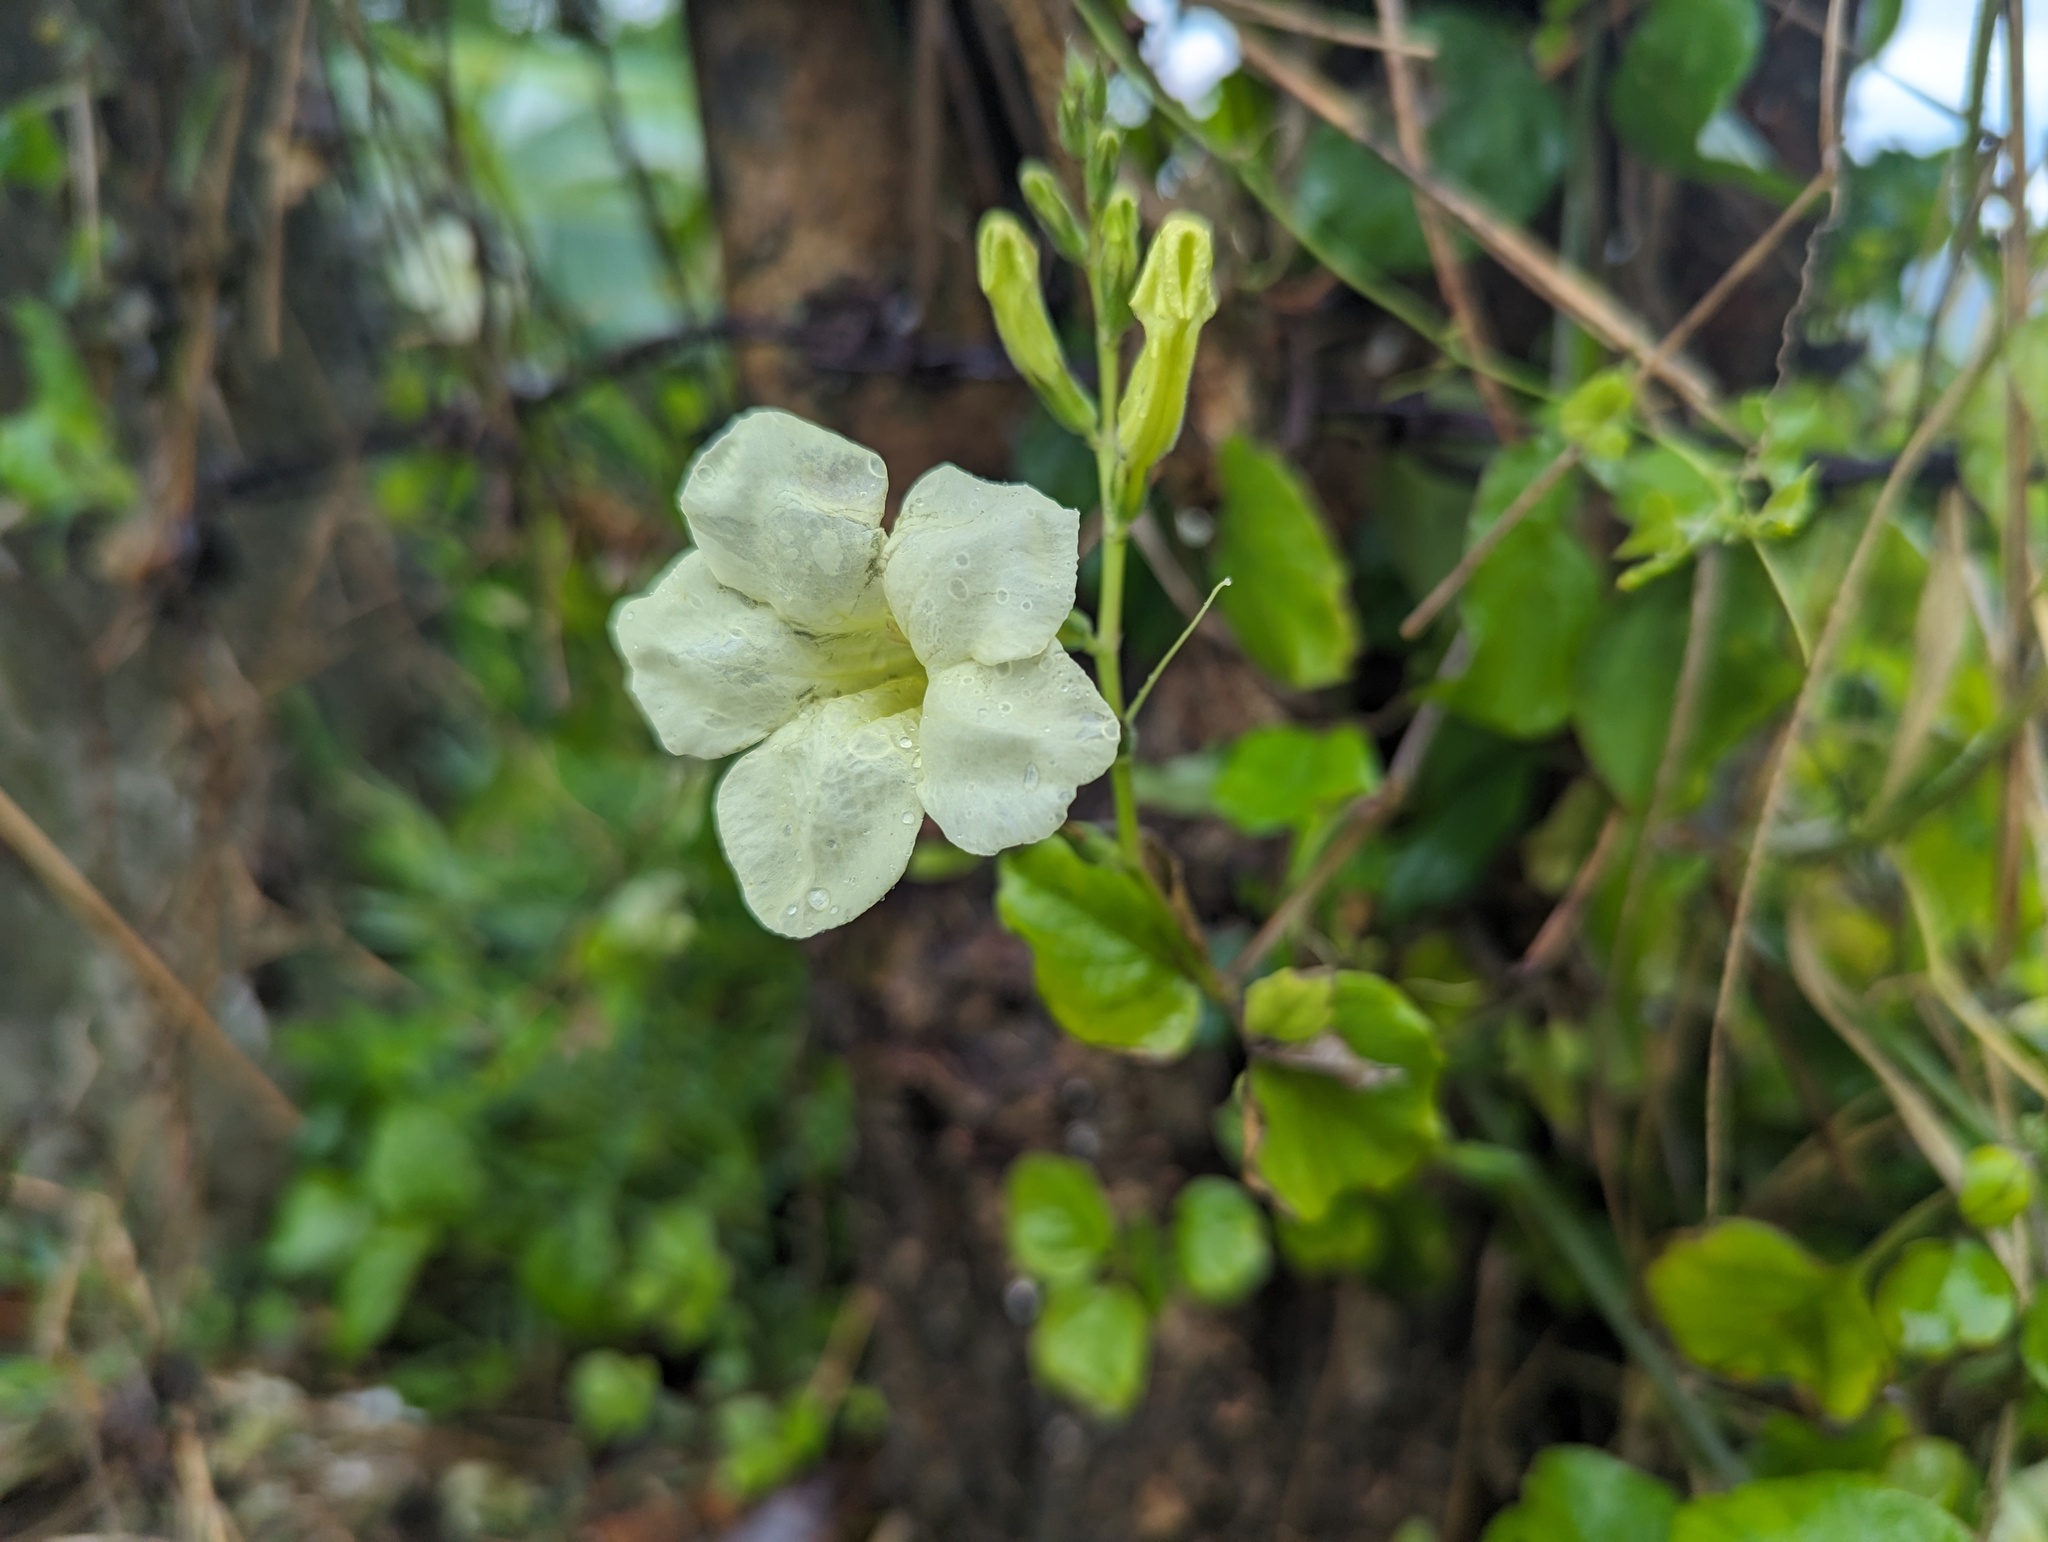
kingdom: Plantae
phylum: Tracheophyta
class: Magnoliopsida
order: Lamiales
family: Acanthaceae
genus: Asystasia
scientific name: Asystasia gangetica
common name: Chinese violet
